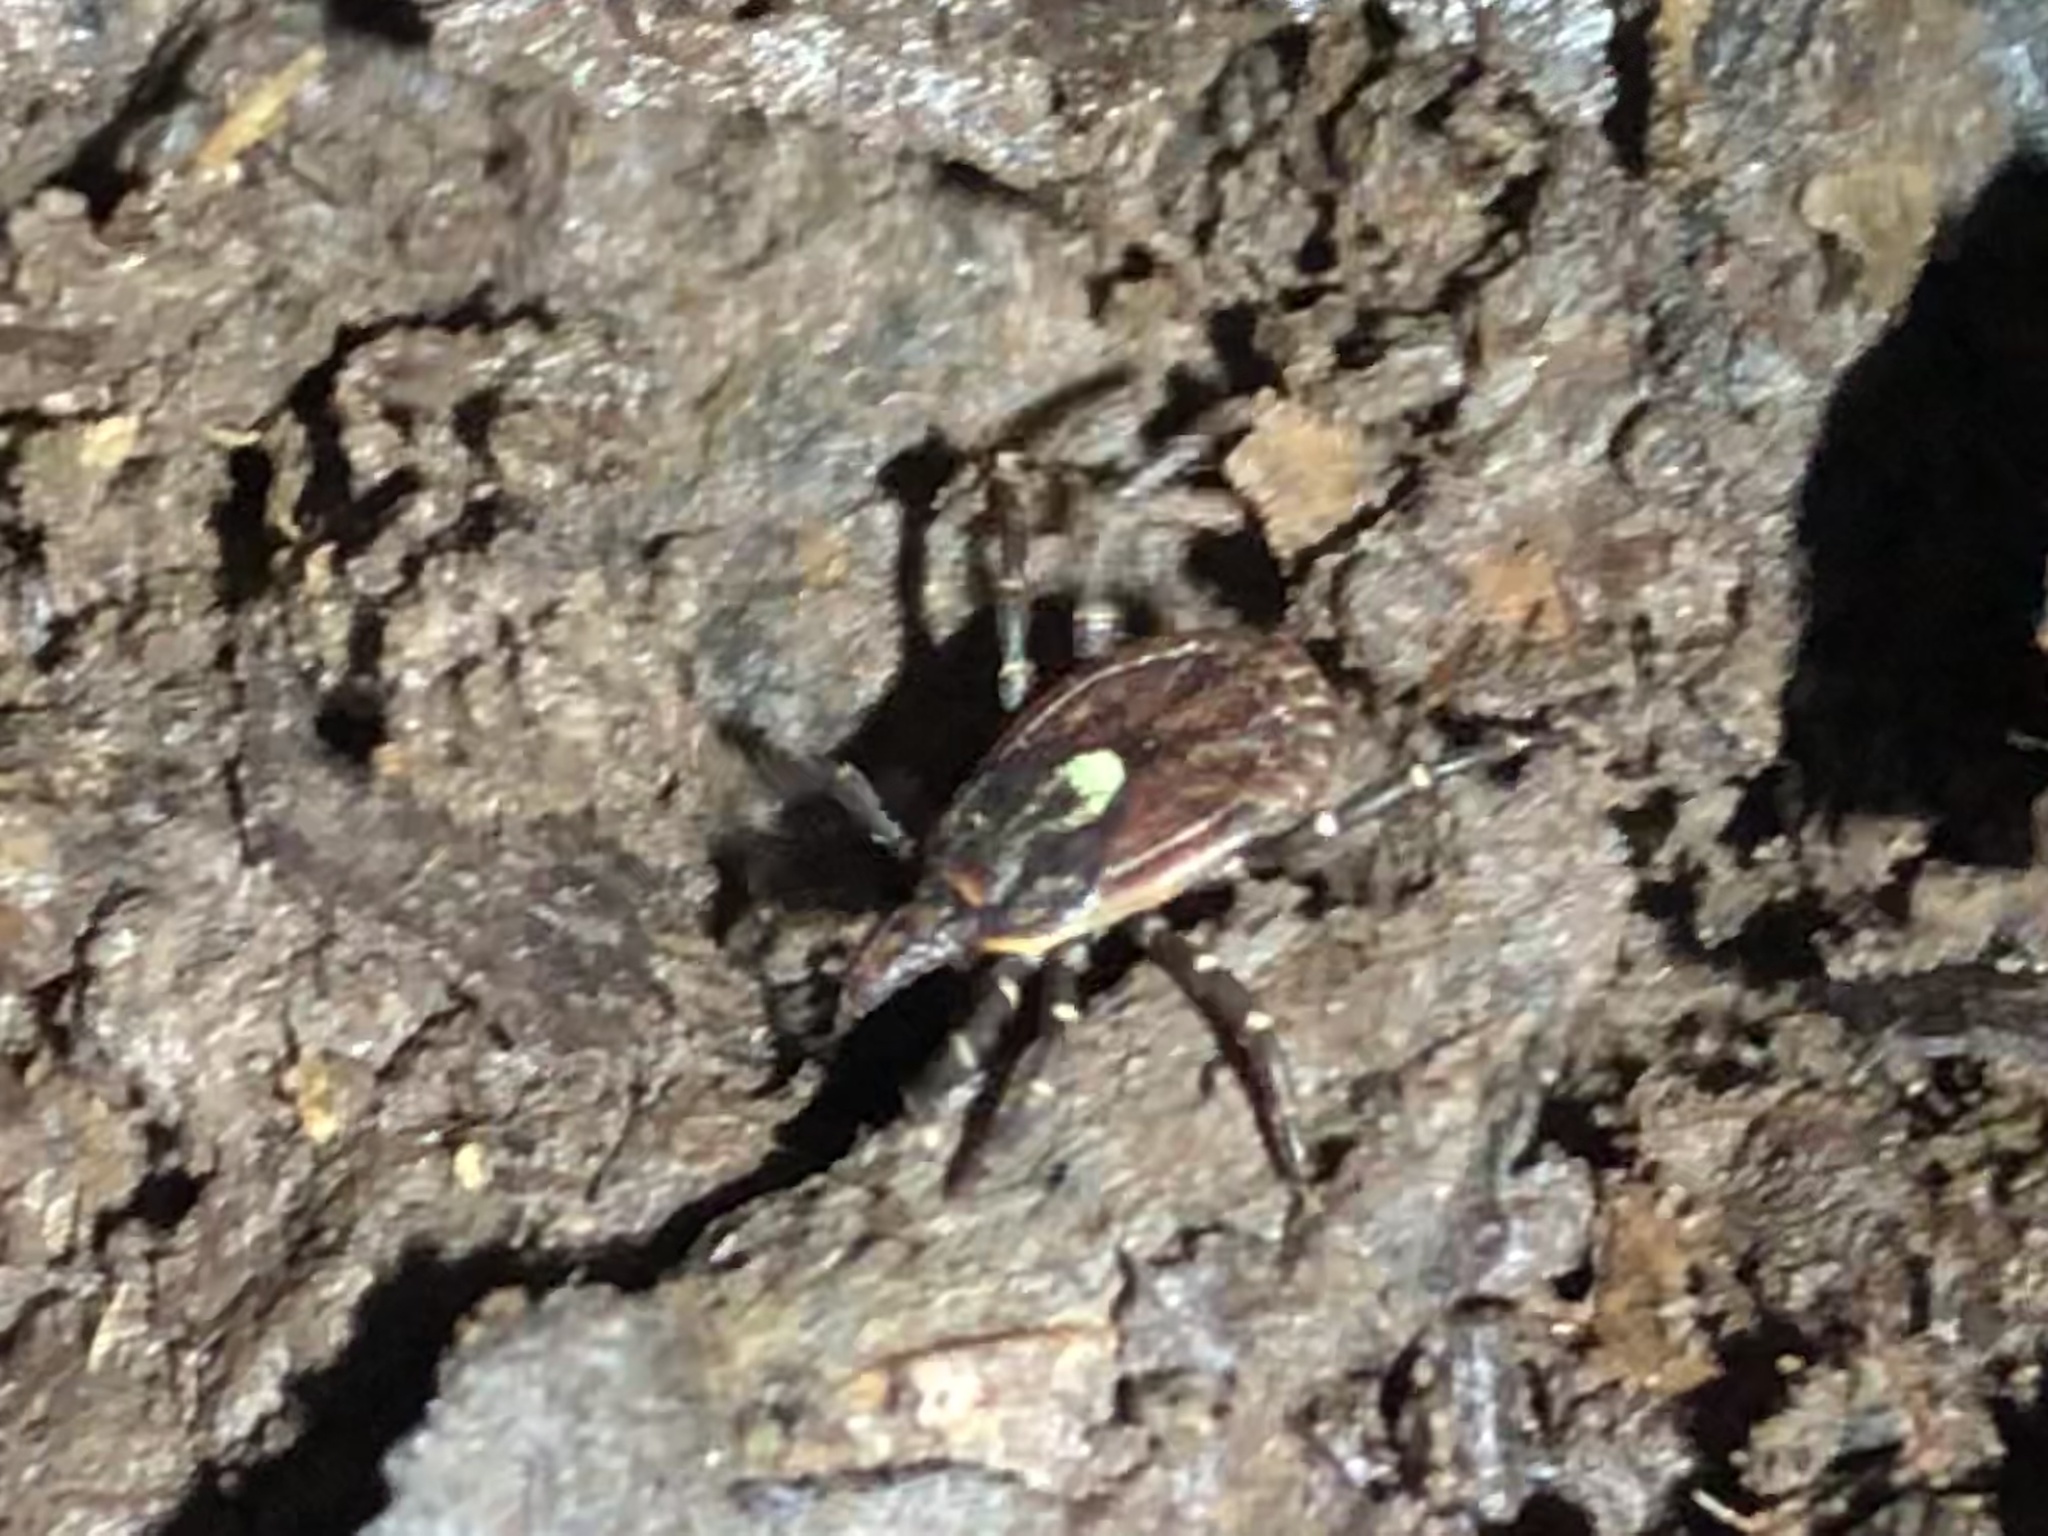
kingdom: Animalia
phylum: Arthropoda
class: Arachnida
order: Ixodida
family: Ixodidae
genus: Amblyomma
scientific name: Amblyomma ovale
